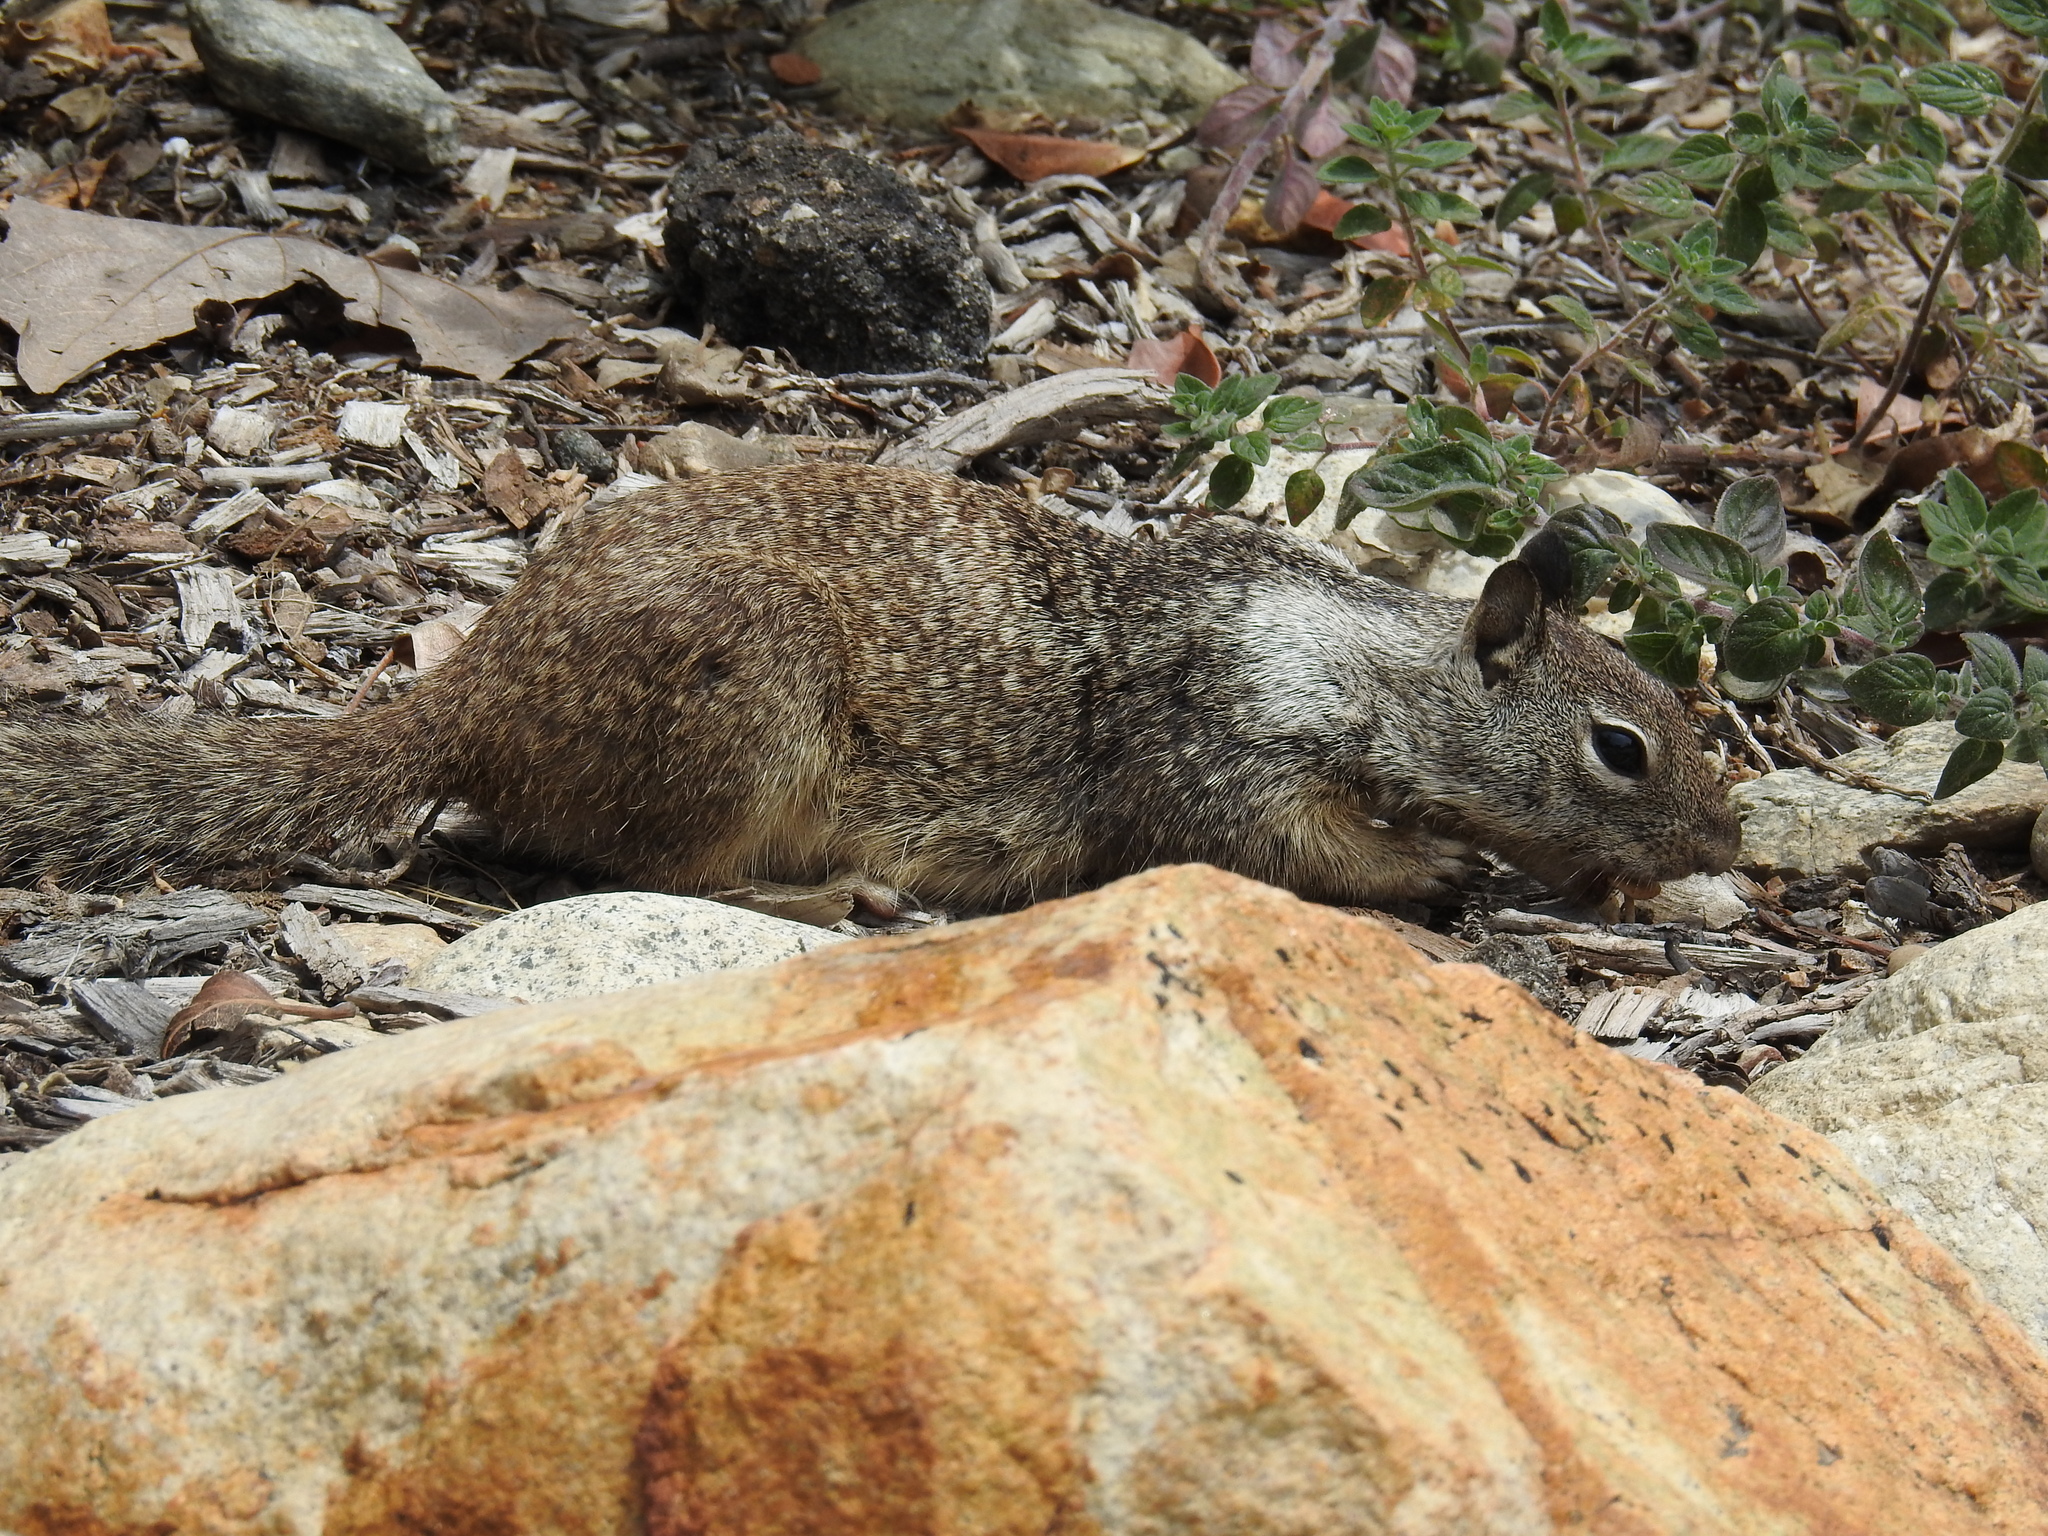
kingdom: Animalia
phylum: Chordata
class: Mammalia
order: Rodentia
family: Sciuridae
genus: Otospermophilus
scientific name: Otospermophilus beecheyi
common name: California ground squirrel
